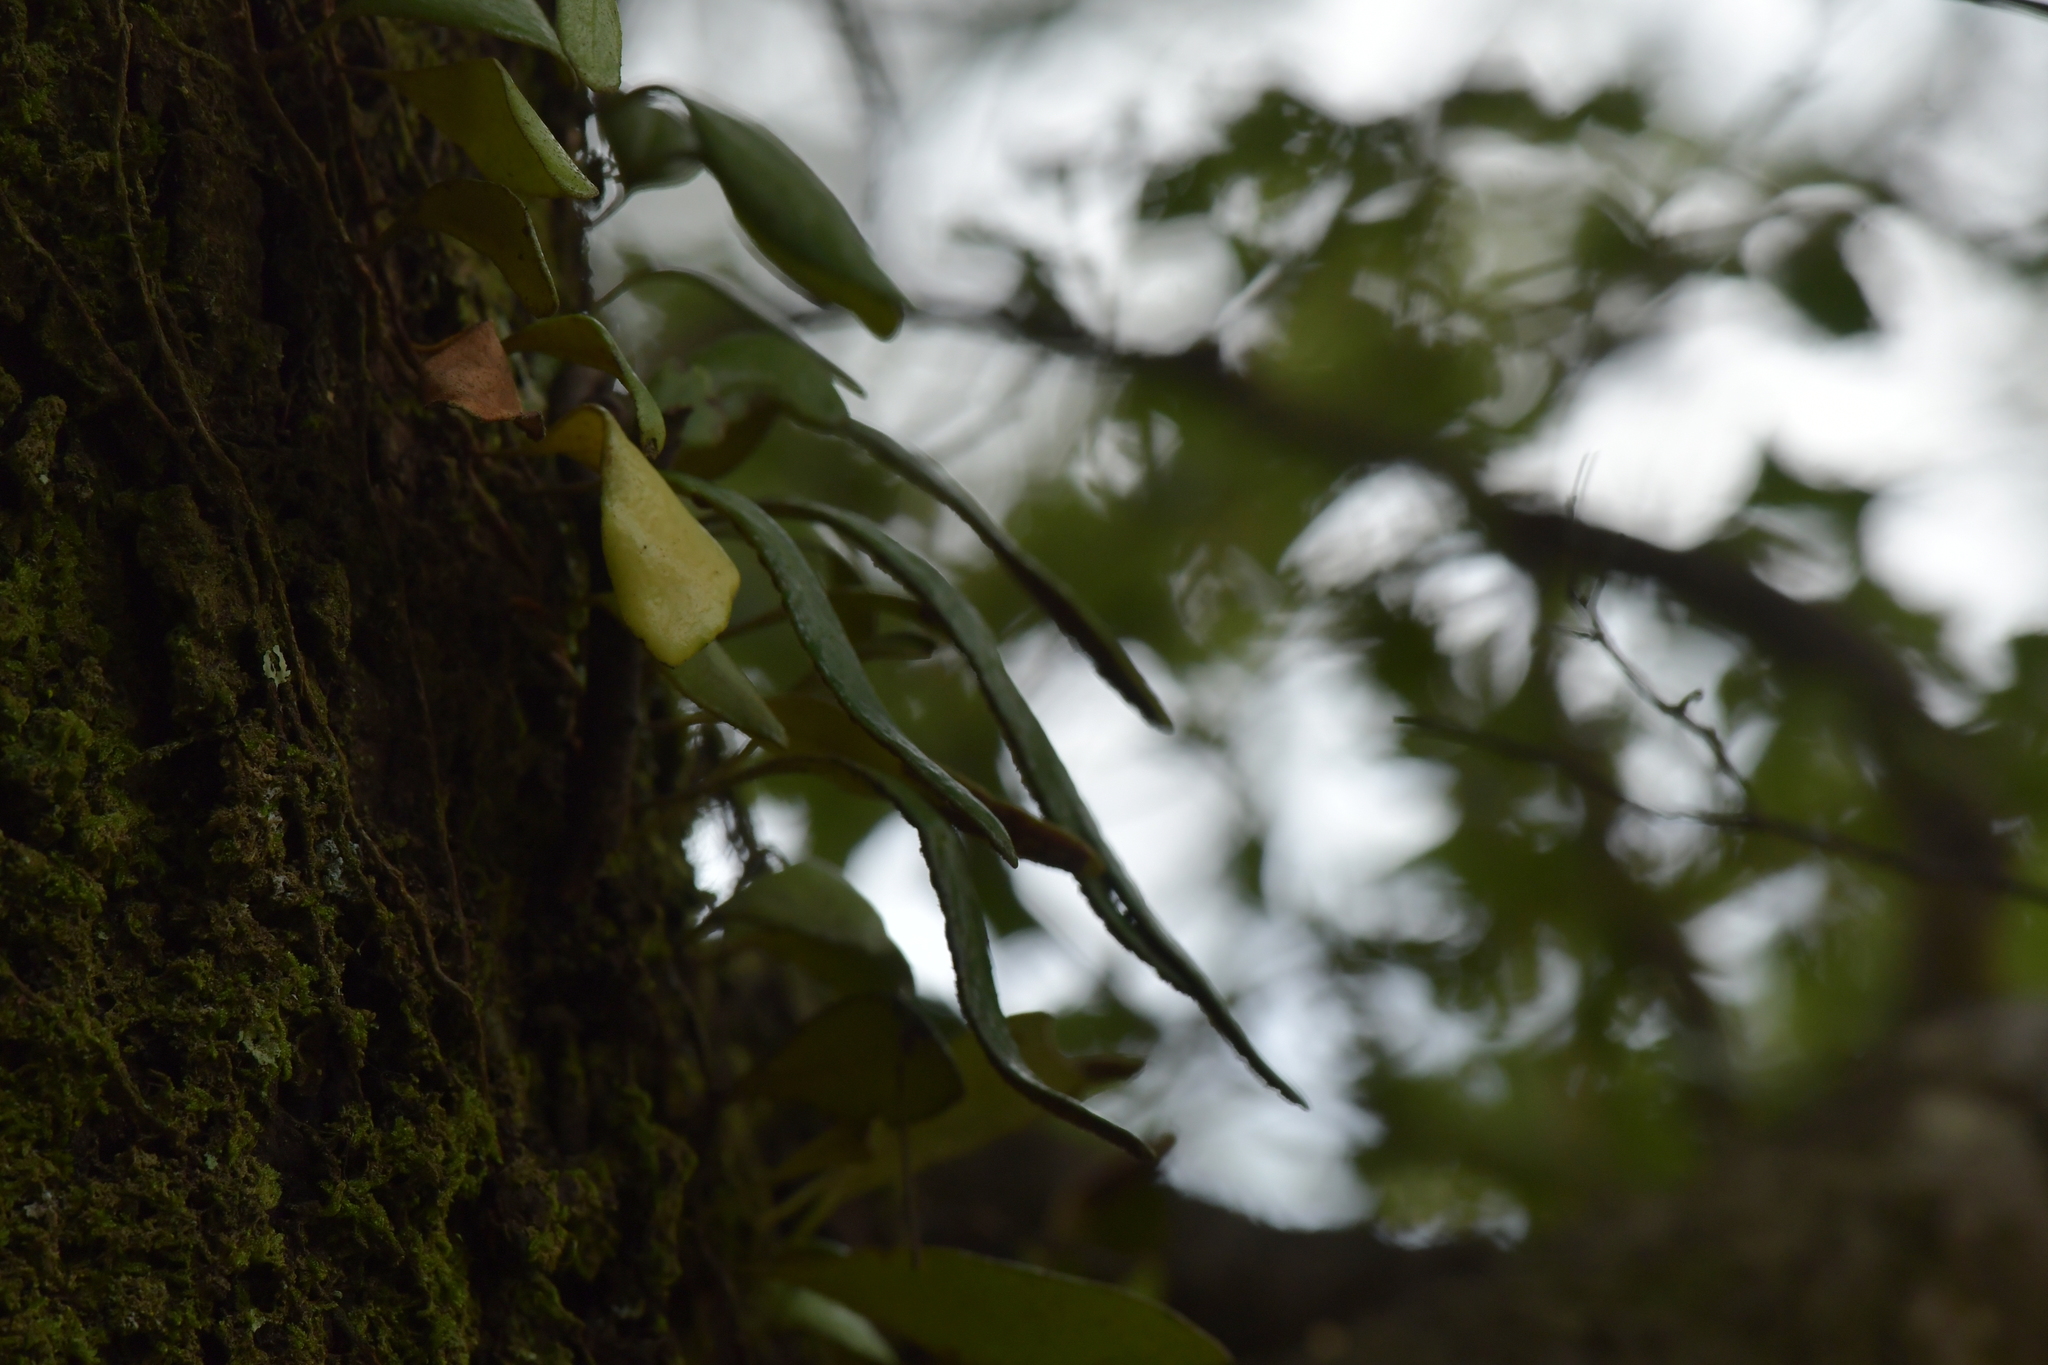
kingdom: Plantae
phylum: Tracheophyta
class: Polypodiopsida
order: Polypodiales
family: Polypodiaceae
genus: Pyrrosia
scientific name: Pyrrosia eleagnifolia
